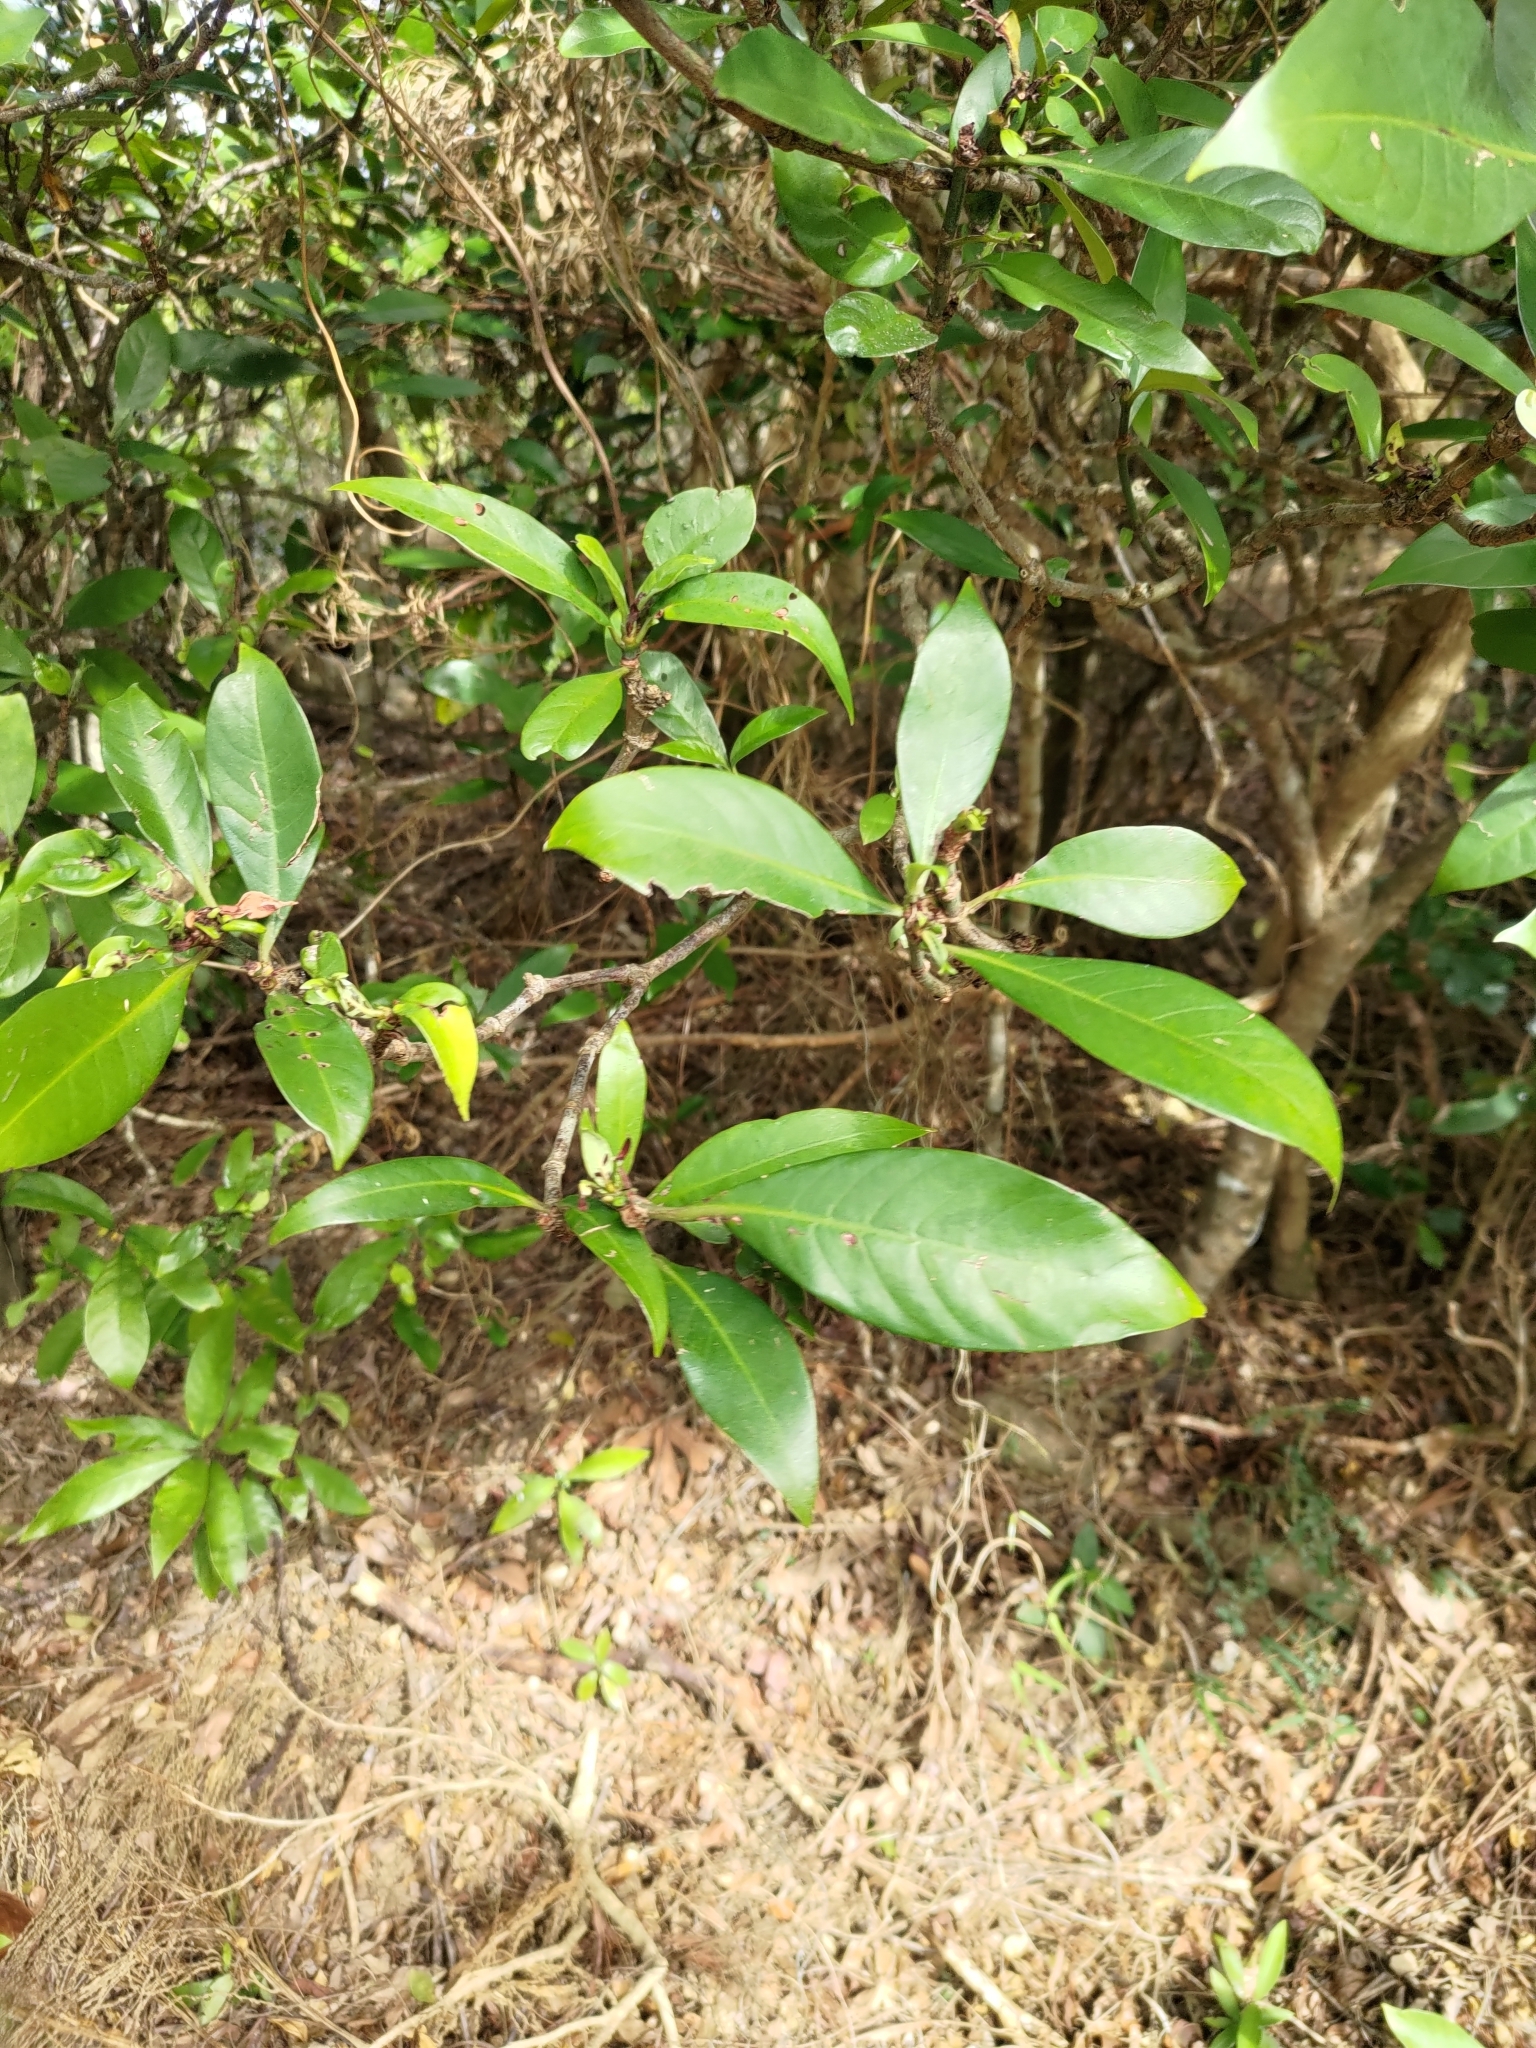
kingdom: Plantae
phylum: Tracheophyta
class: Magnoliopsida
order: Gentianales
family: Rubiaceae
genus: Psychotria
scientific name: Psychotria asiatica
